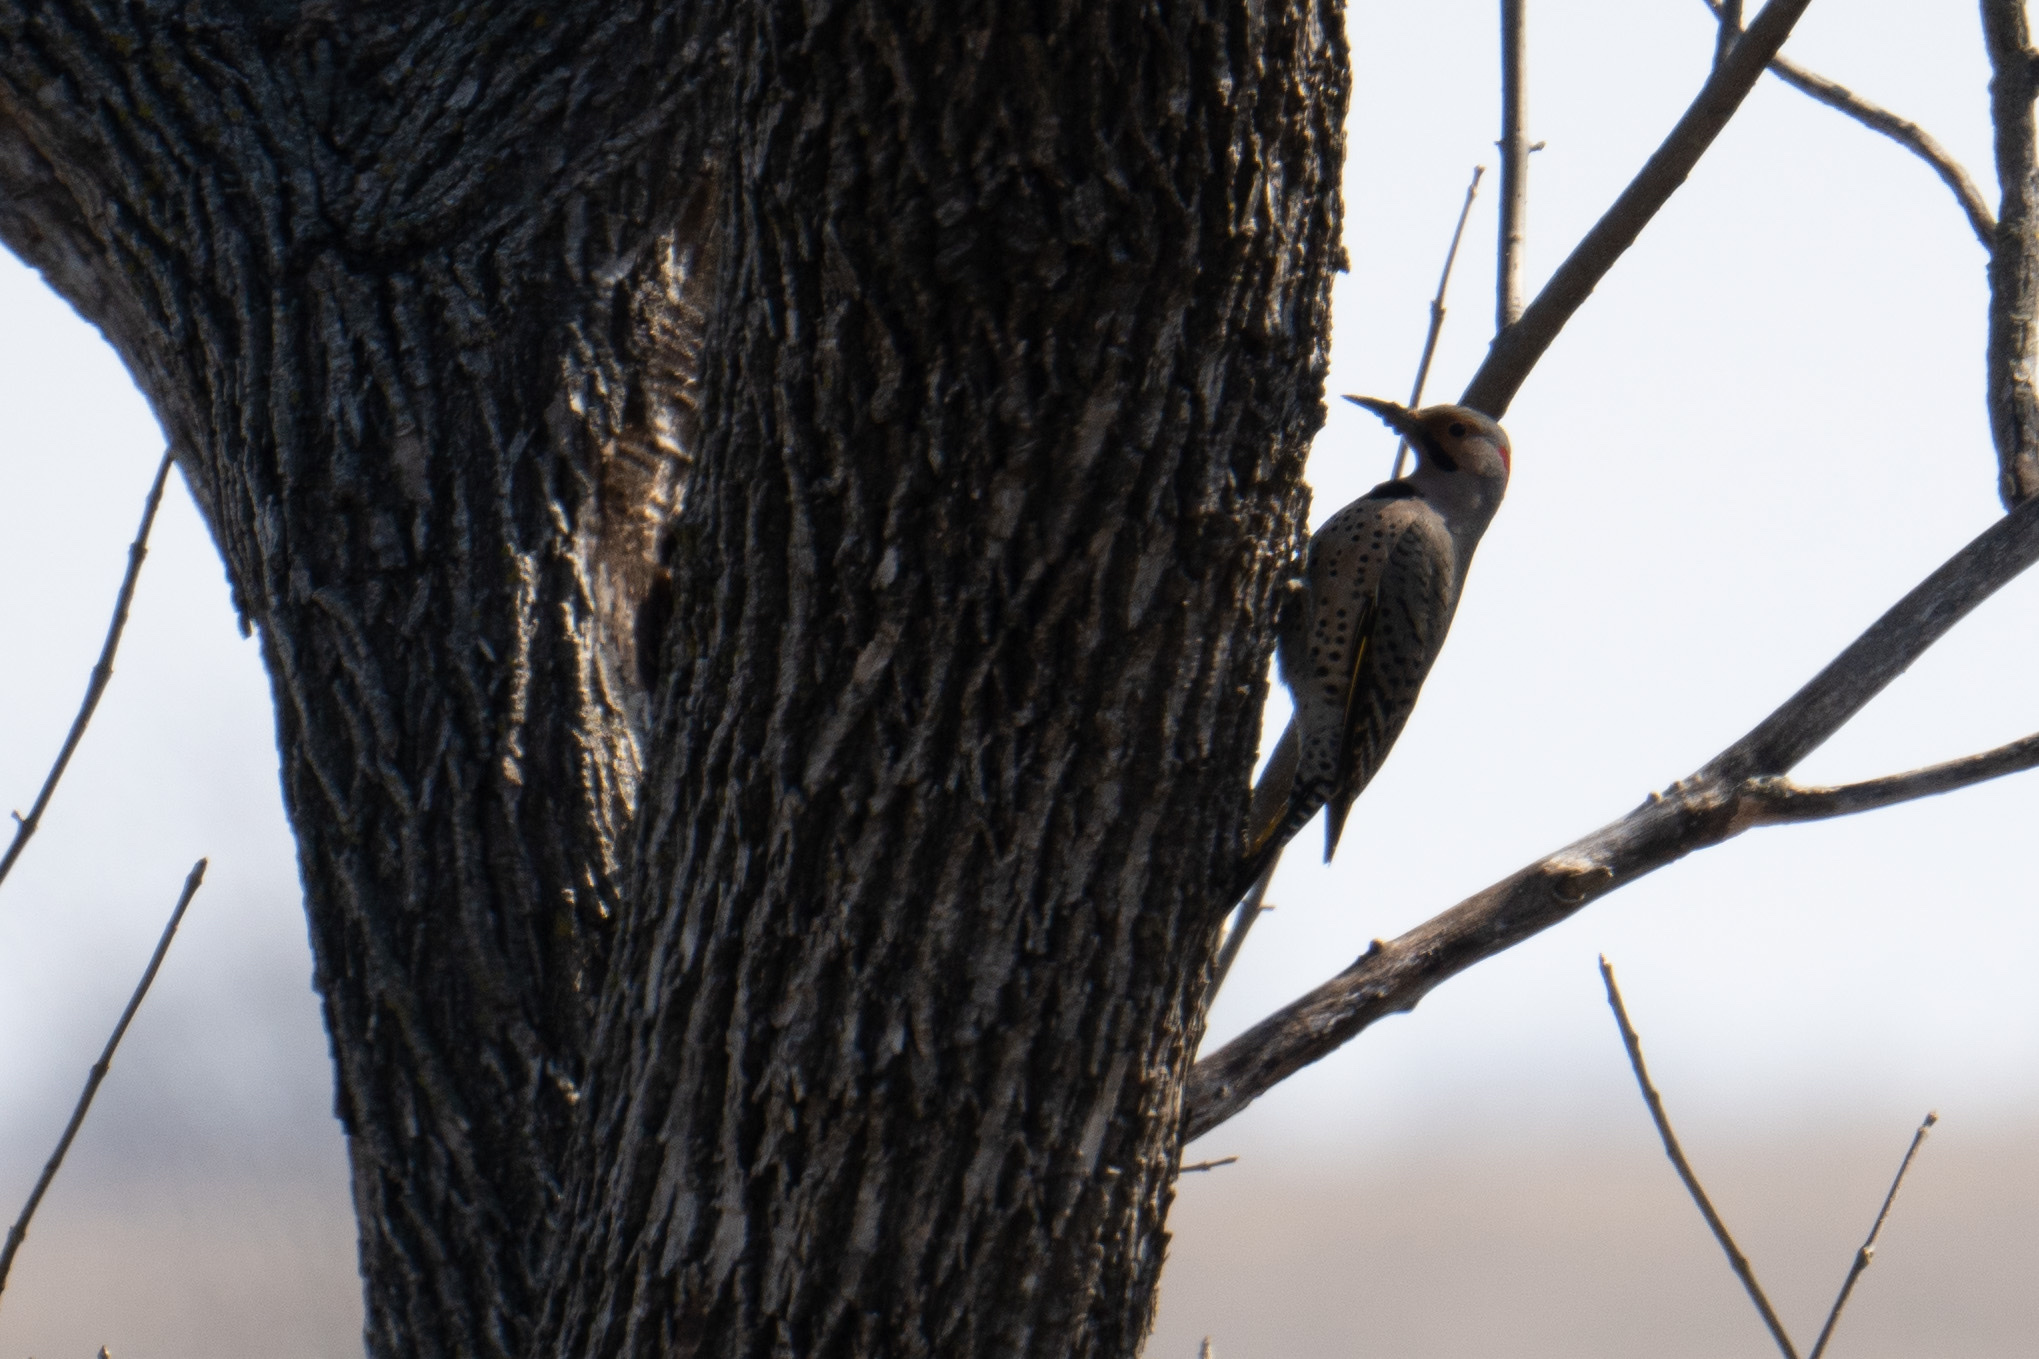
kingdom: Animalia
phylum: Chordata
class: Aves
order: Piciformes
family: Picidae
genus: Colaptes
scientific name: Colaptes auratus
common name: Northern flicker
